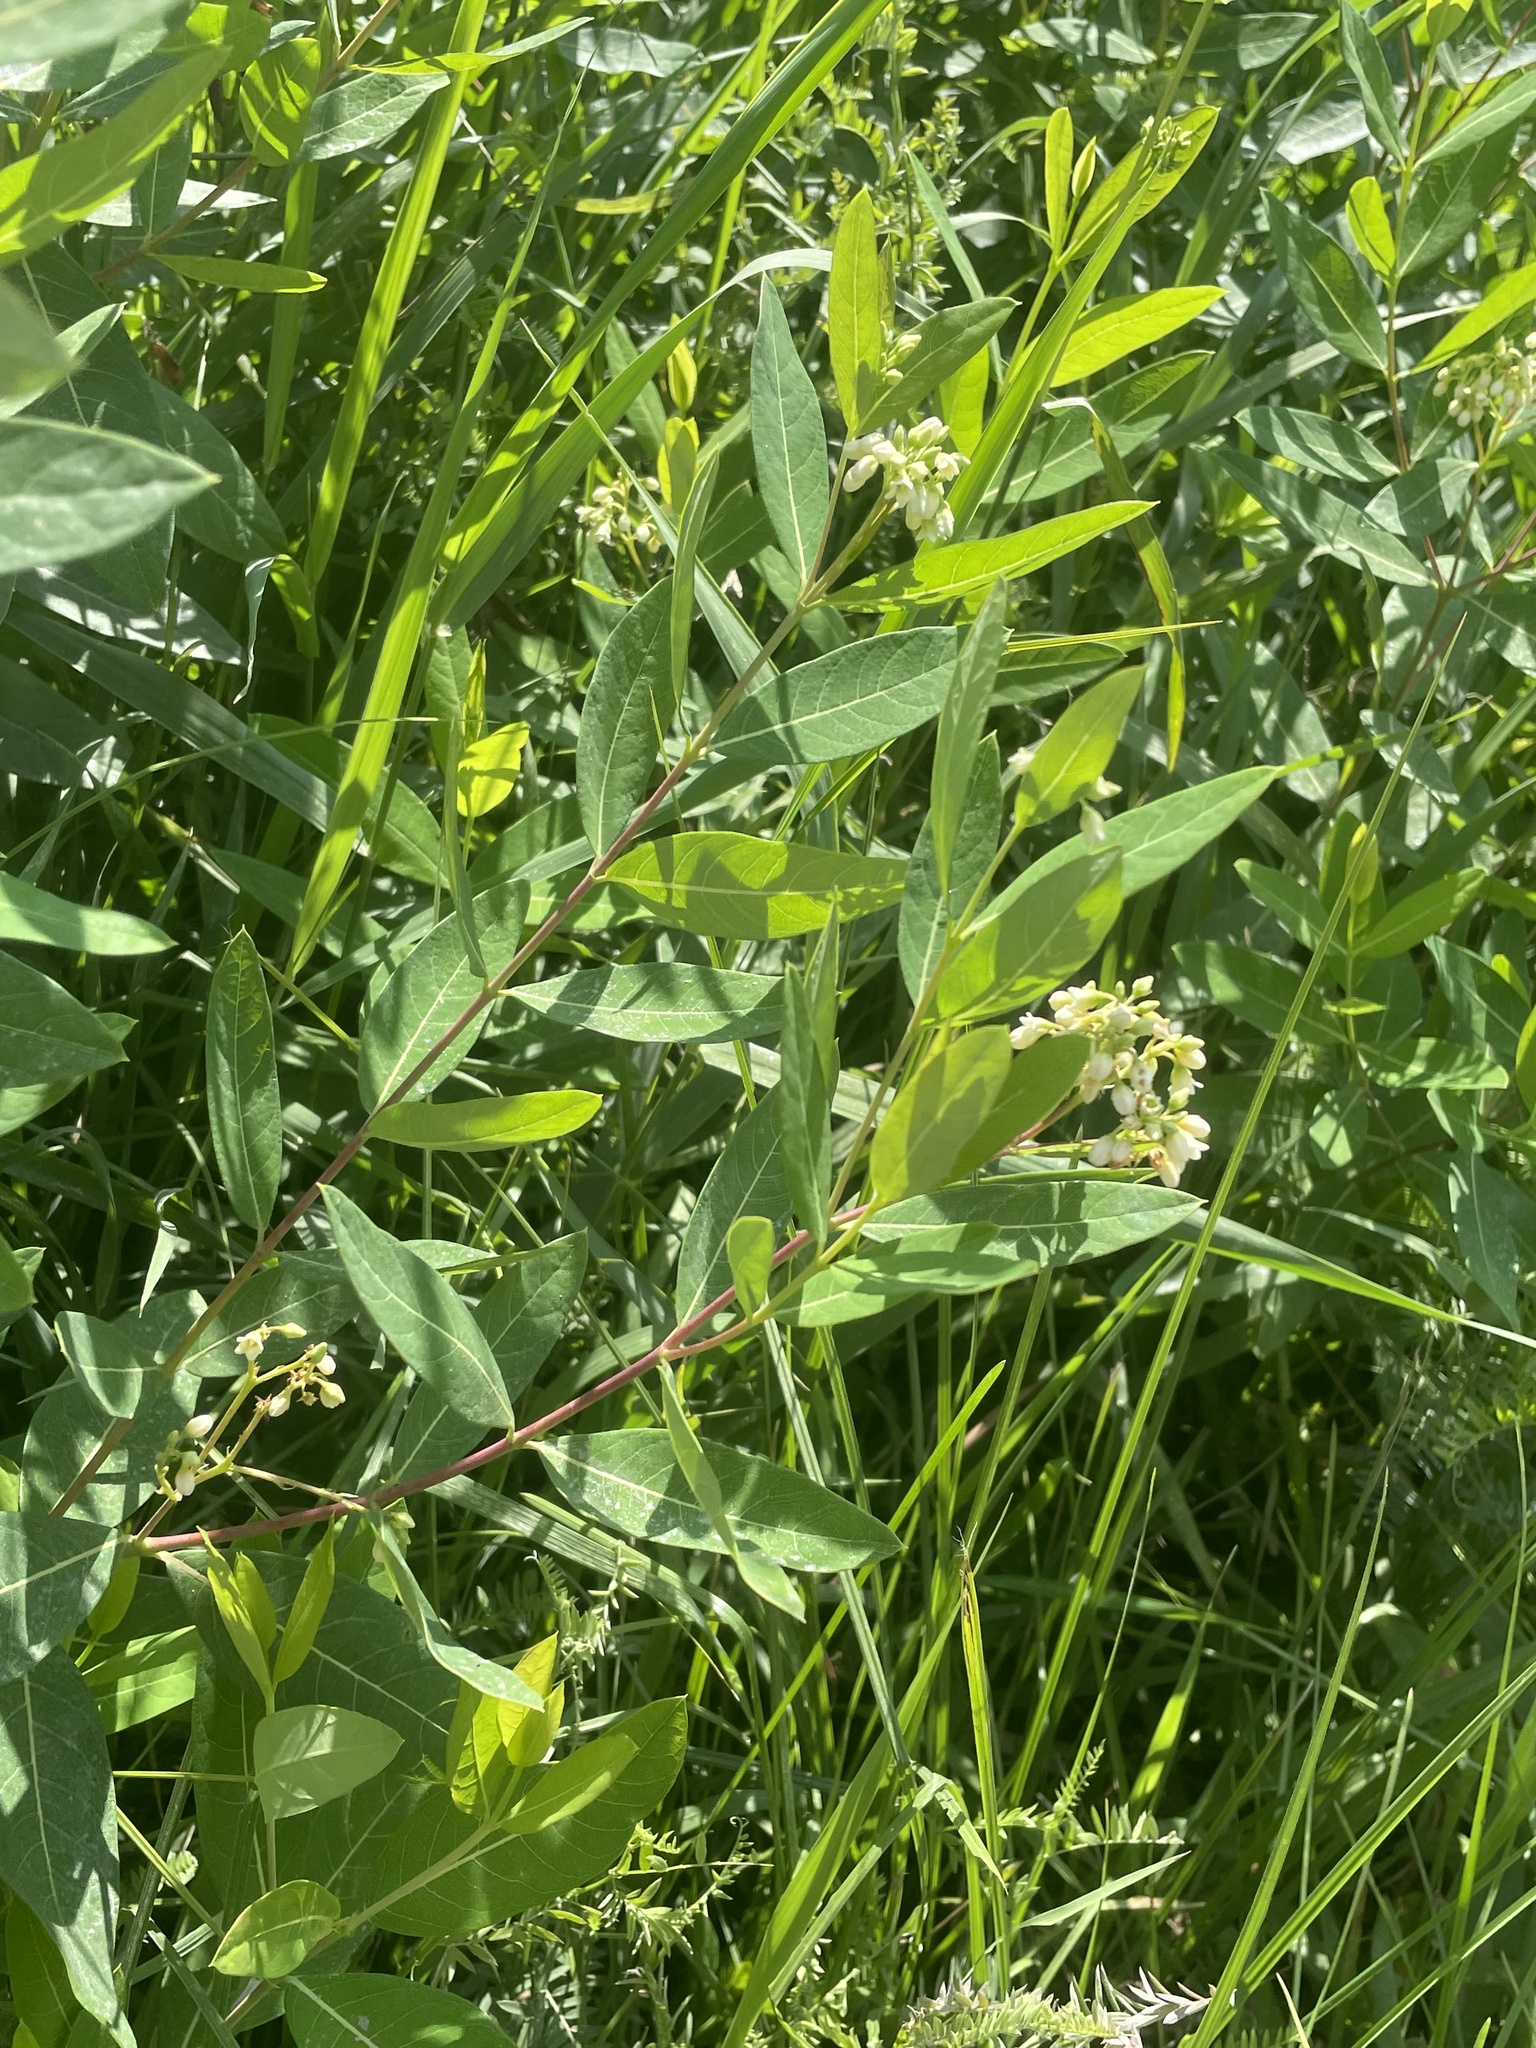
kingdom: Plantae
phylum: Tracheophyta
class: Magnoliopsida
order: Gentianales
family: Apocynaceae
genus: Apocynum
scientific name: Apocynum cannabinum
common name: Hemp dogbane
